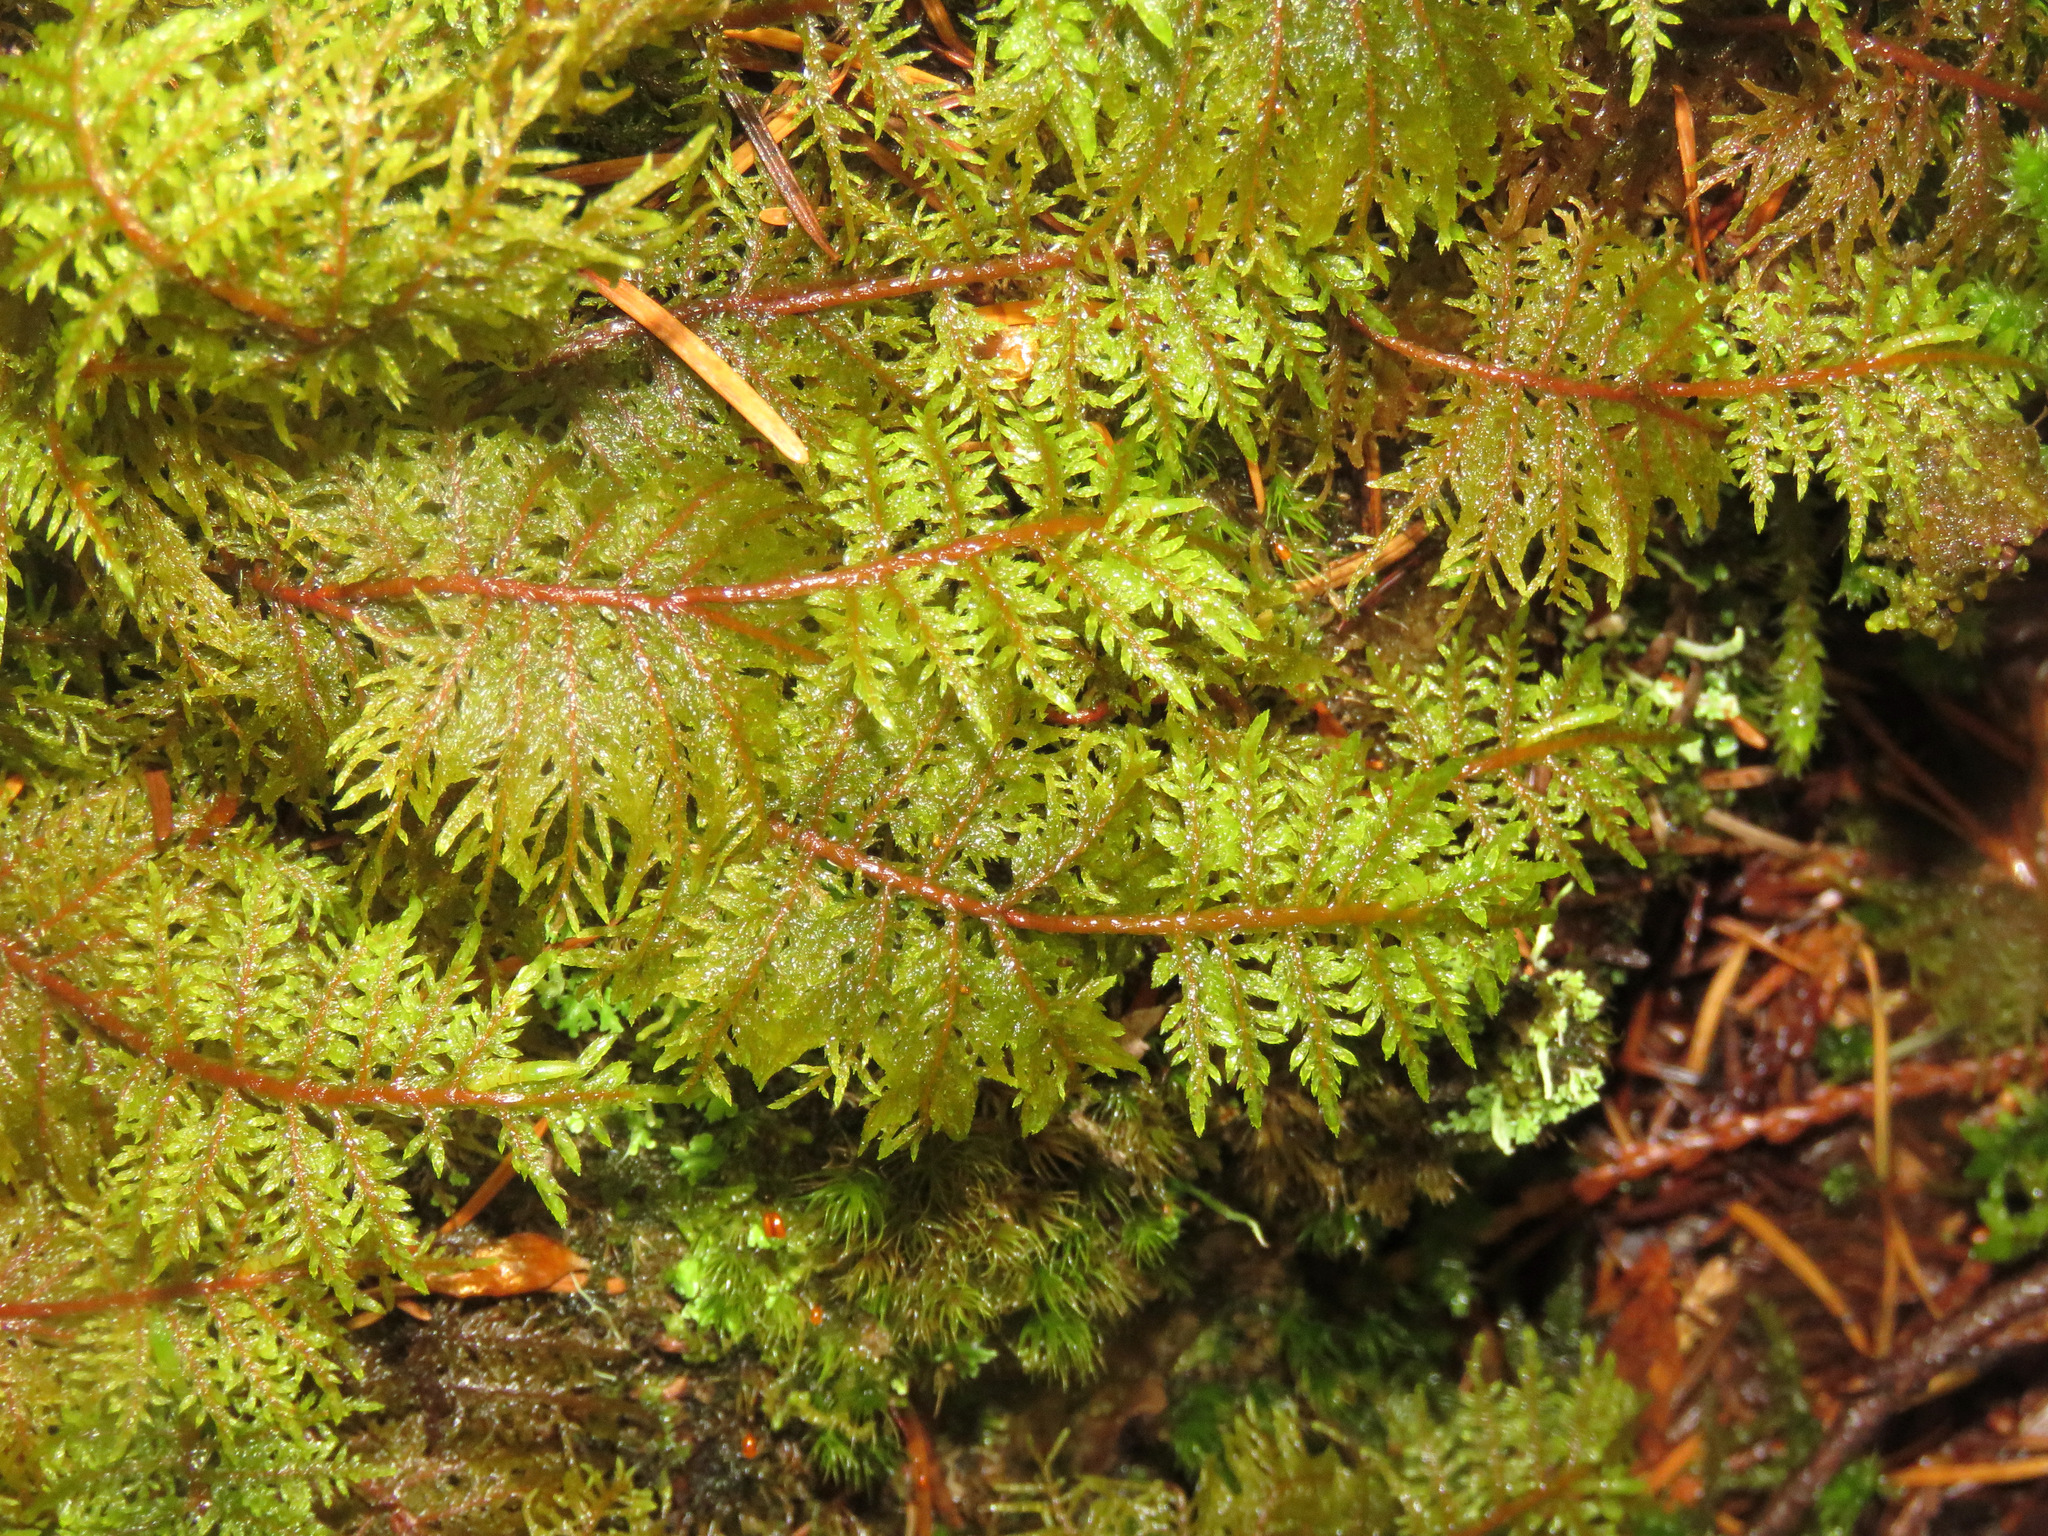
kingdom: Plantae
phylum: Bryophyta
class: Bryopsida
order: Hypnales
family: Hylocomiaceae
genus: Hylocomium
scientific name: Hylocomium splendens
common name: Stairstep moss
